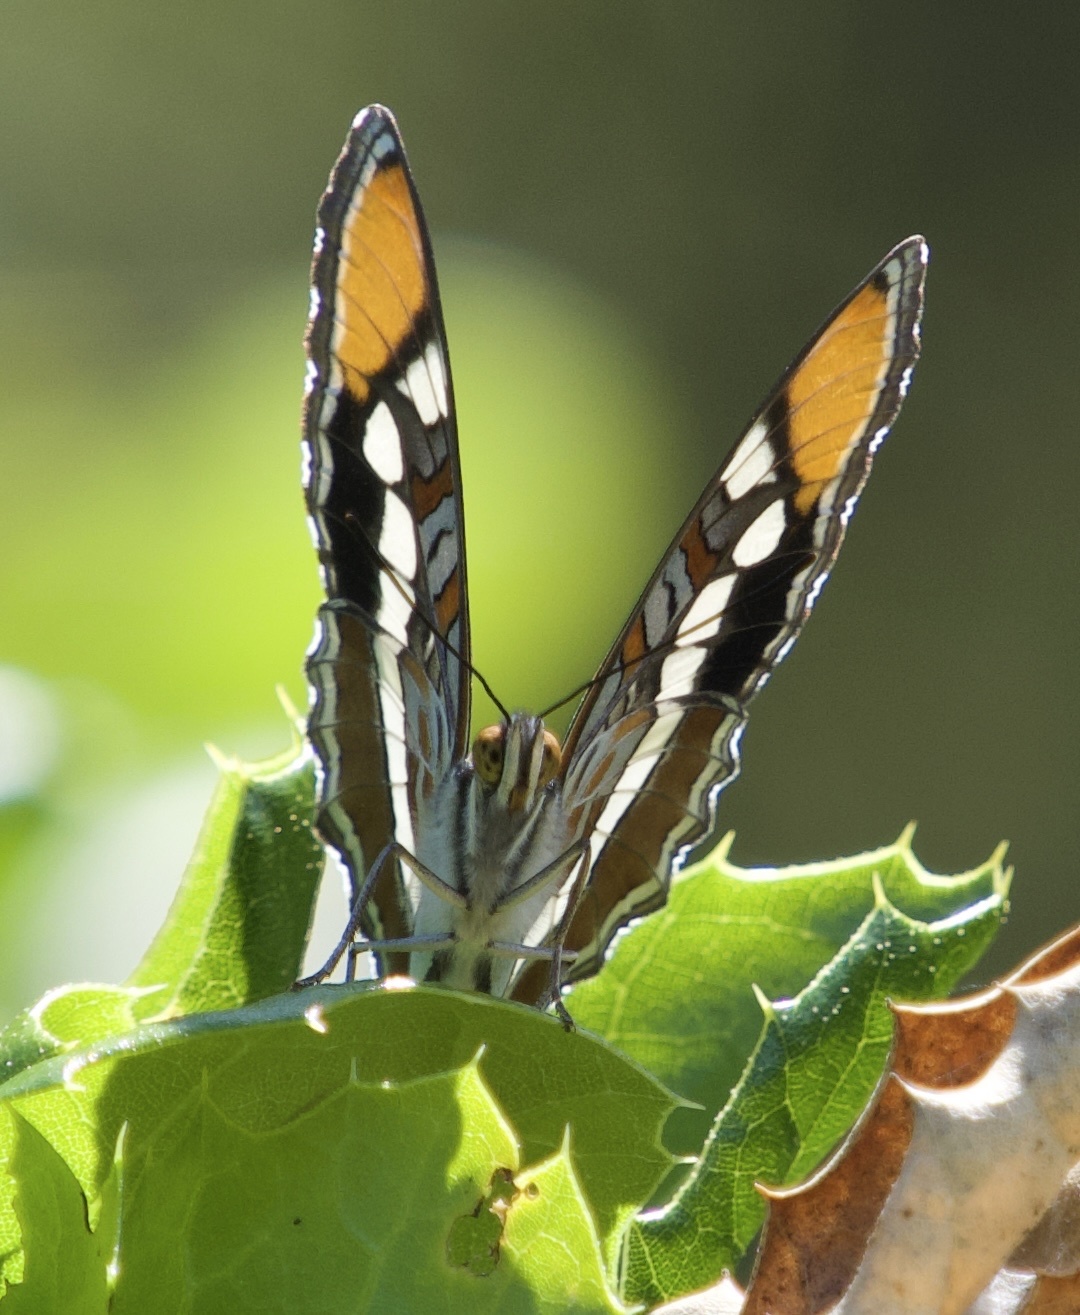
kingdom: Animalia
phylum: Arthropoda
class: Insecta
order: Lepidoptera
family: Nymphalidae
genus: Limenitis
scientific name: Limenitis bredowii
